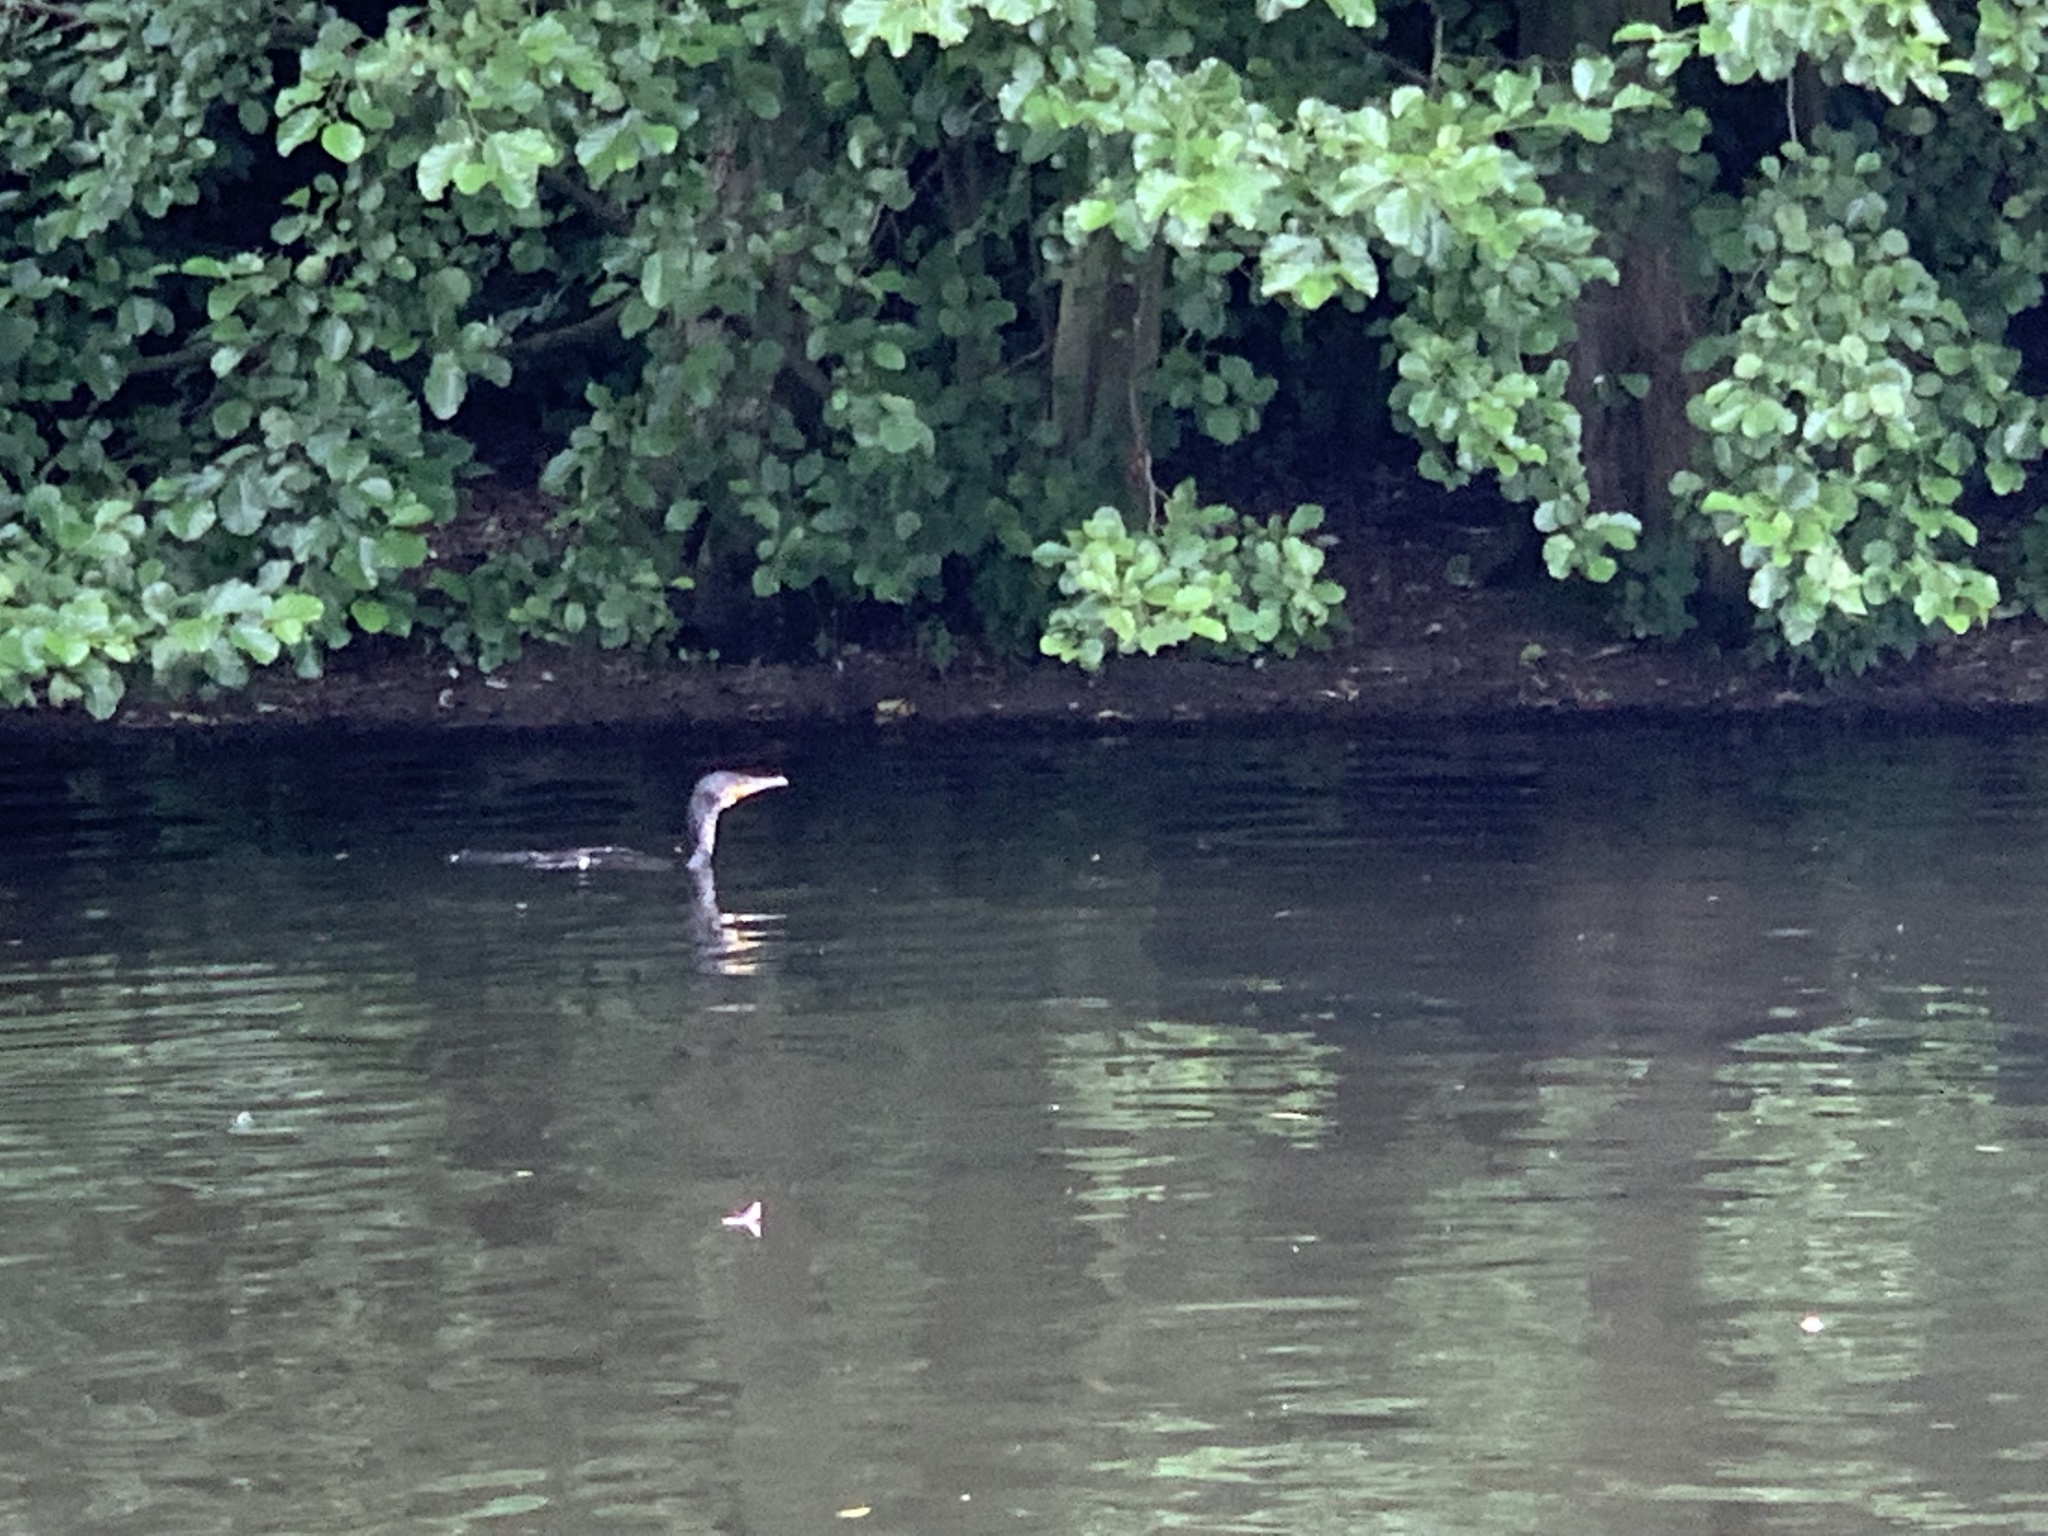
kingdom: Animalia
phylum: Chordata
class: Aves
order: Suliformes
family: Phalacrocoracidae
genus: Phalacrocorax
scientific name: Phalacrocorax carbo
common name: Great cormorant
